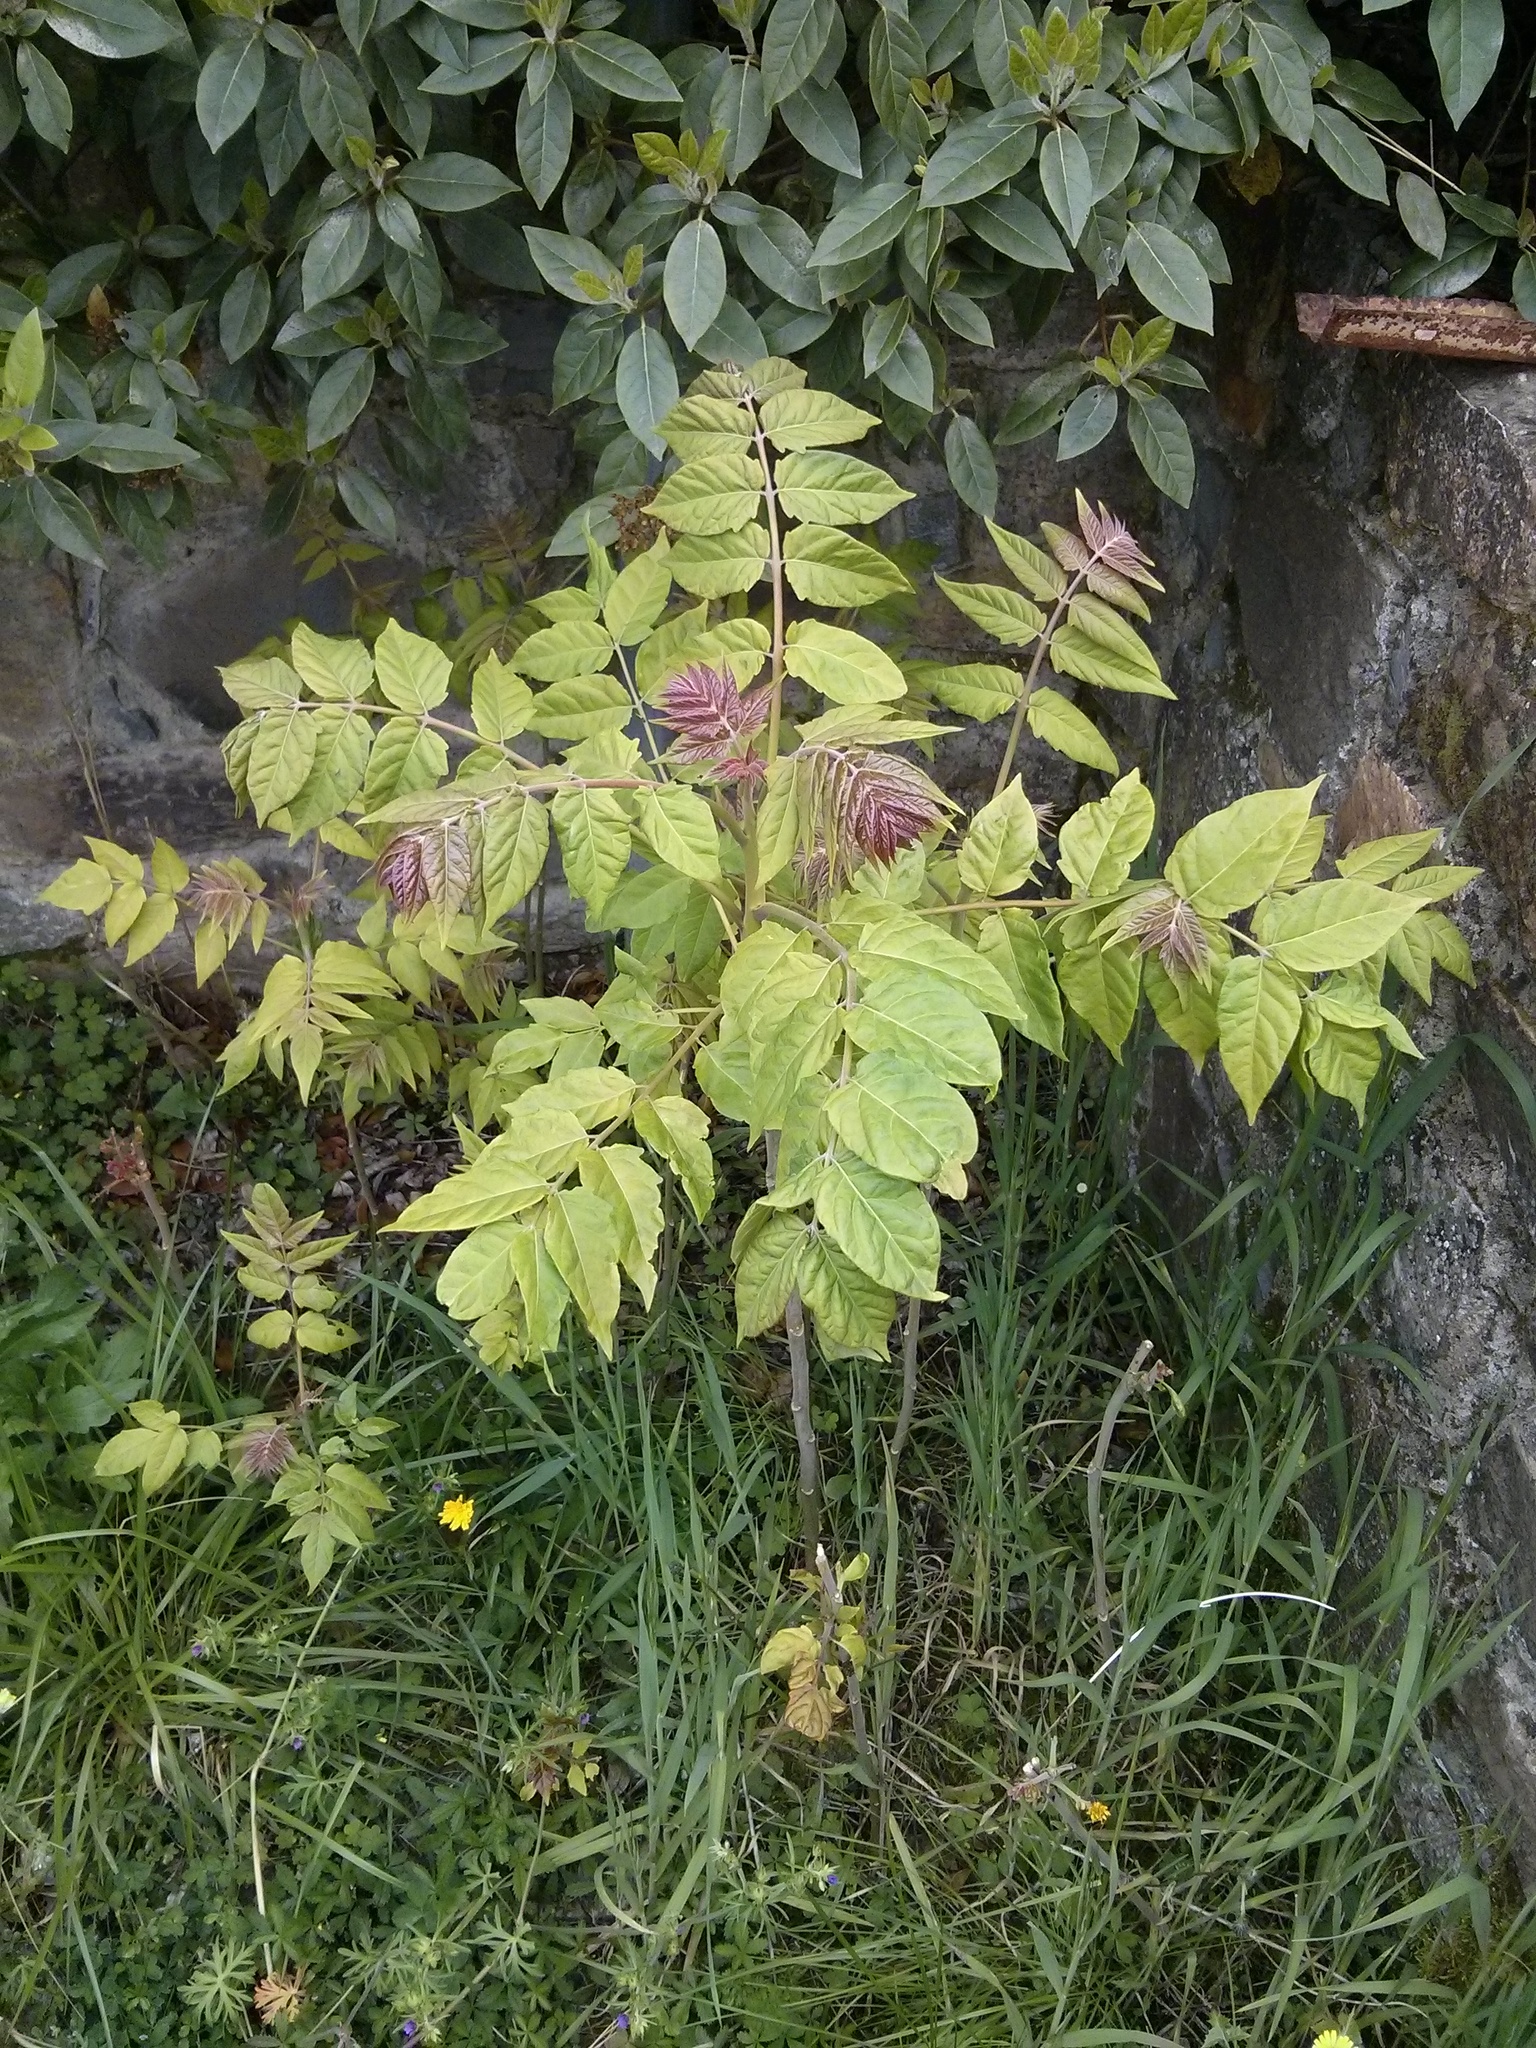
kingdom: Plantae
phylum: Tracheophyta
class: Magnoliopsida
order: Sapindales
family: Simaroubaceae
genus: Ailanthus
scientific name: Ailanthus altissima
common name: Tree-of-heaven
